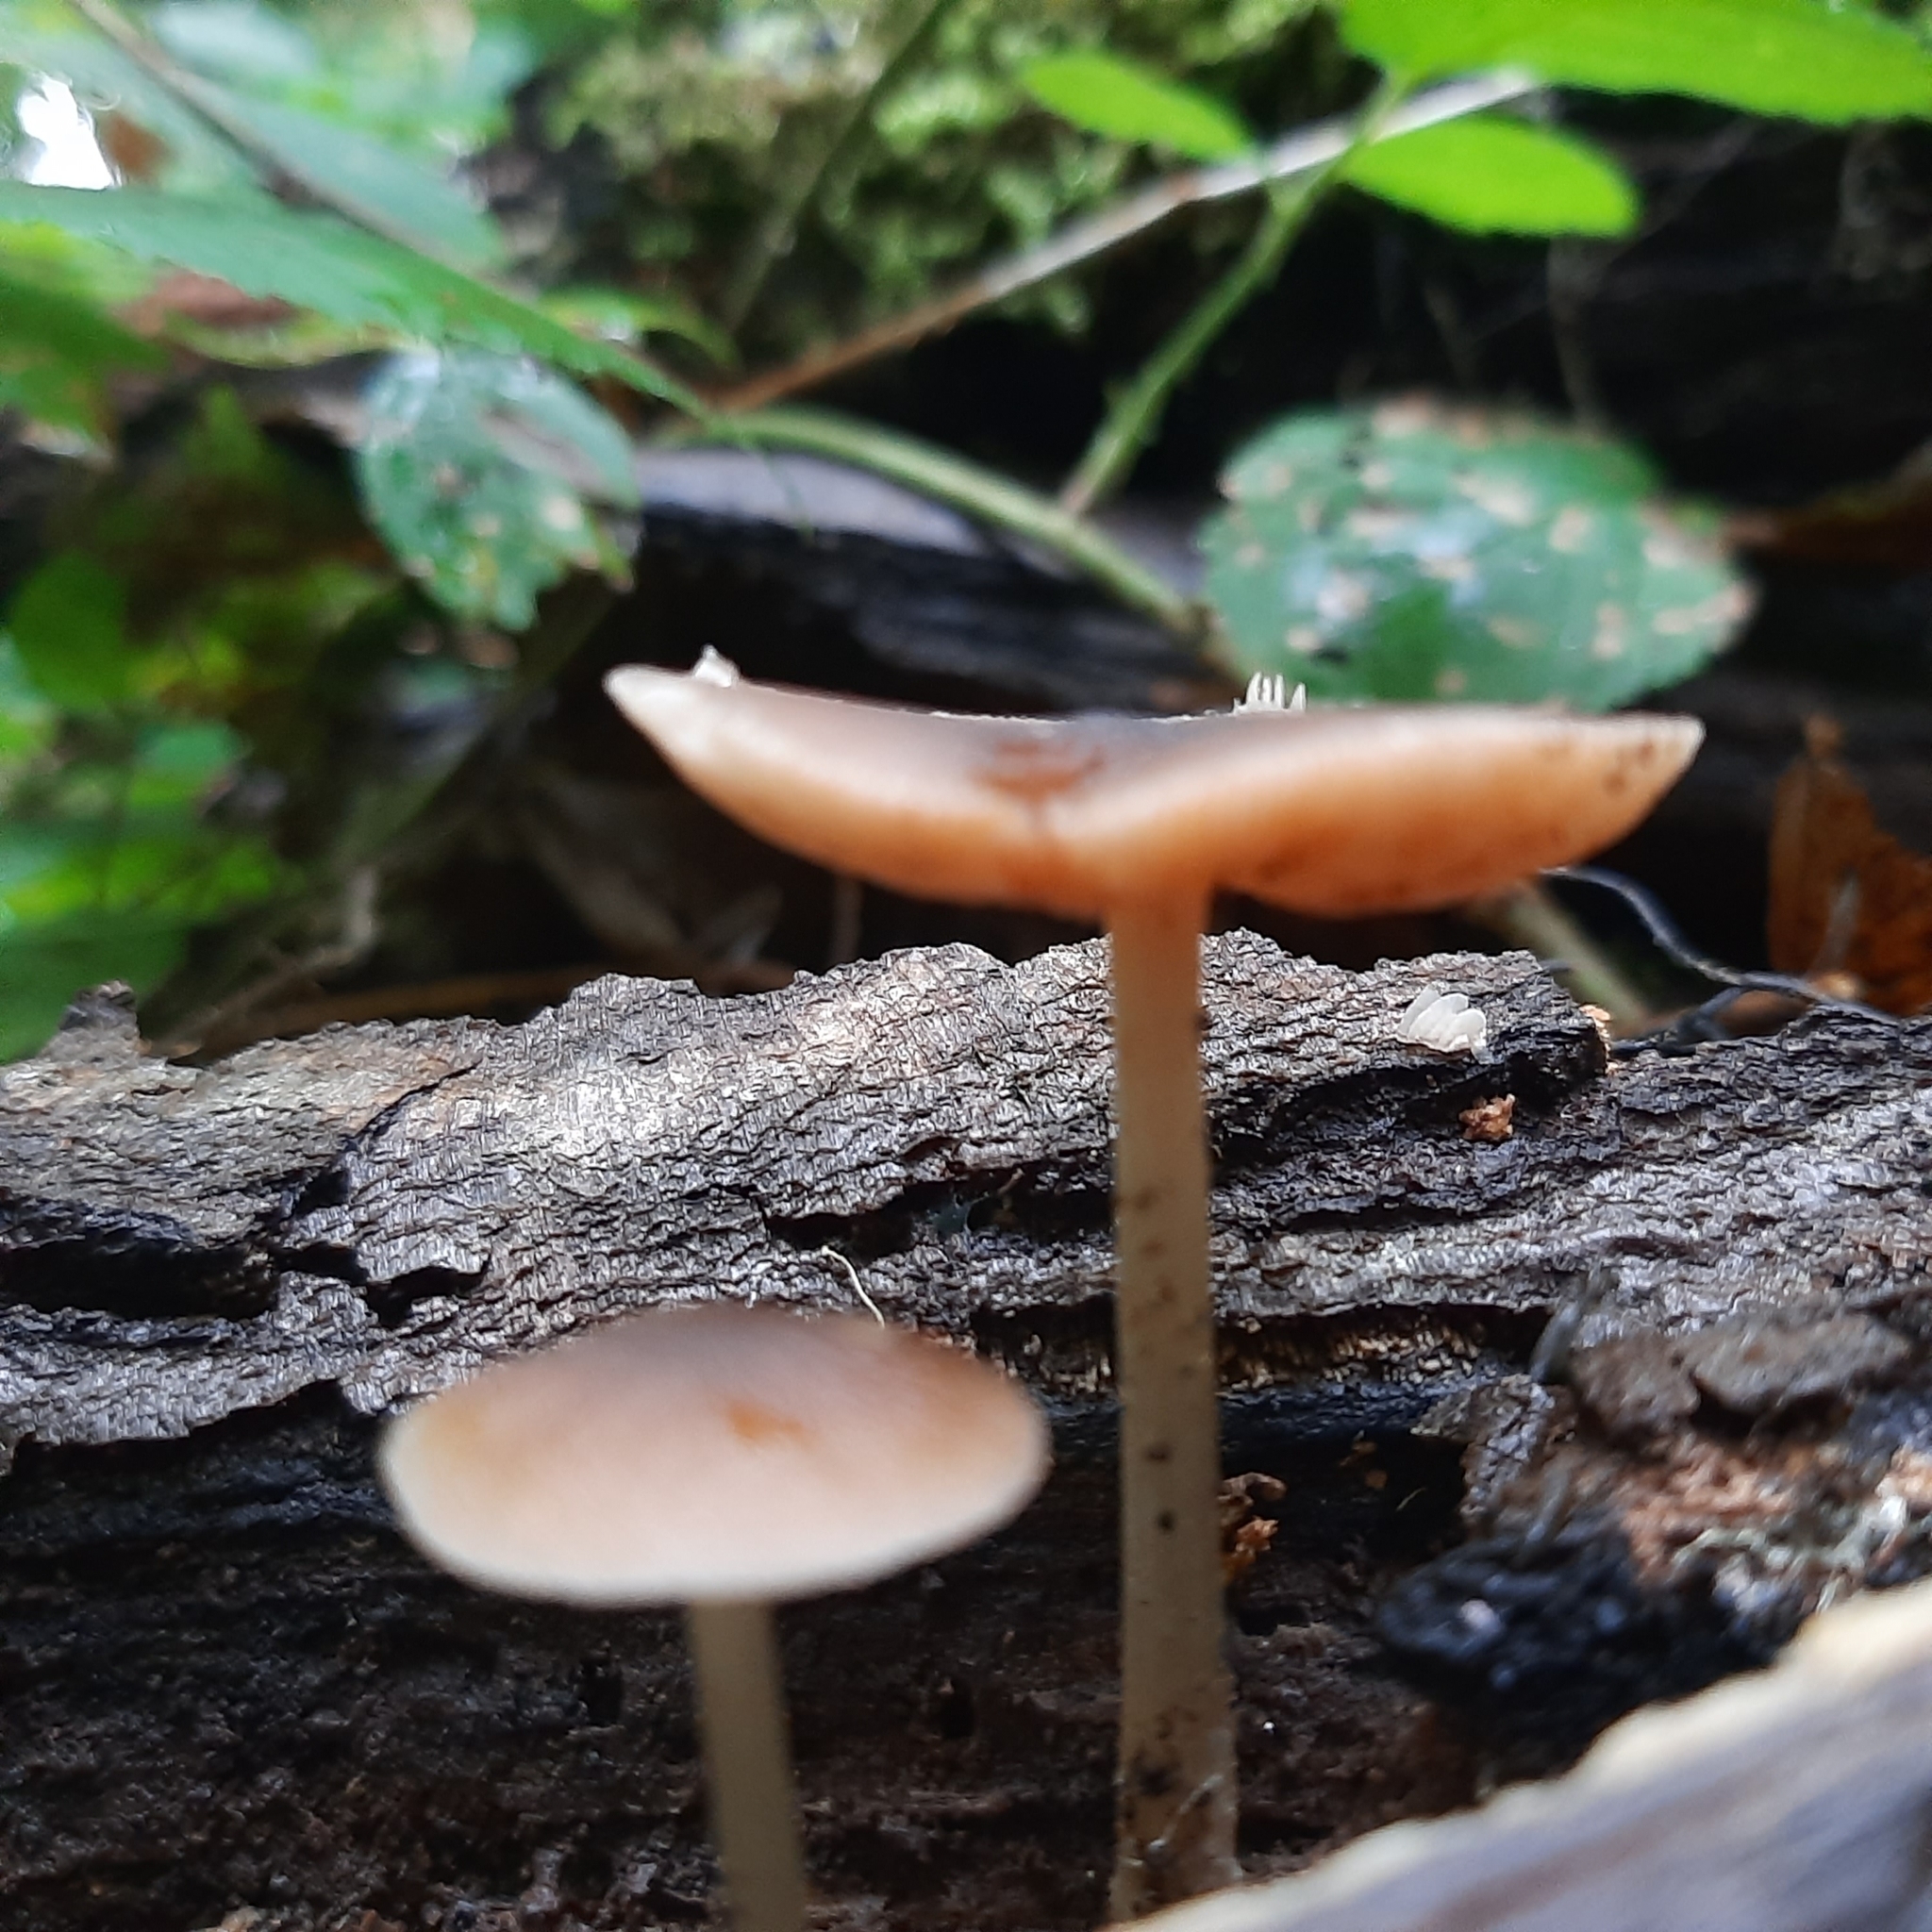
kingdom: Fungi
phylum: Basidiomycota
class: Agaricomycetes
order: Agaricales
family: Pluteaceae
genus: Pluteus
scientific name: Pluteus
